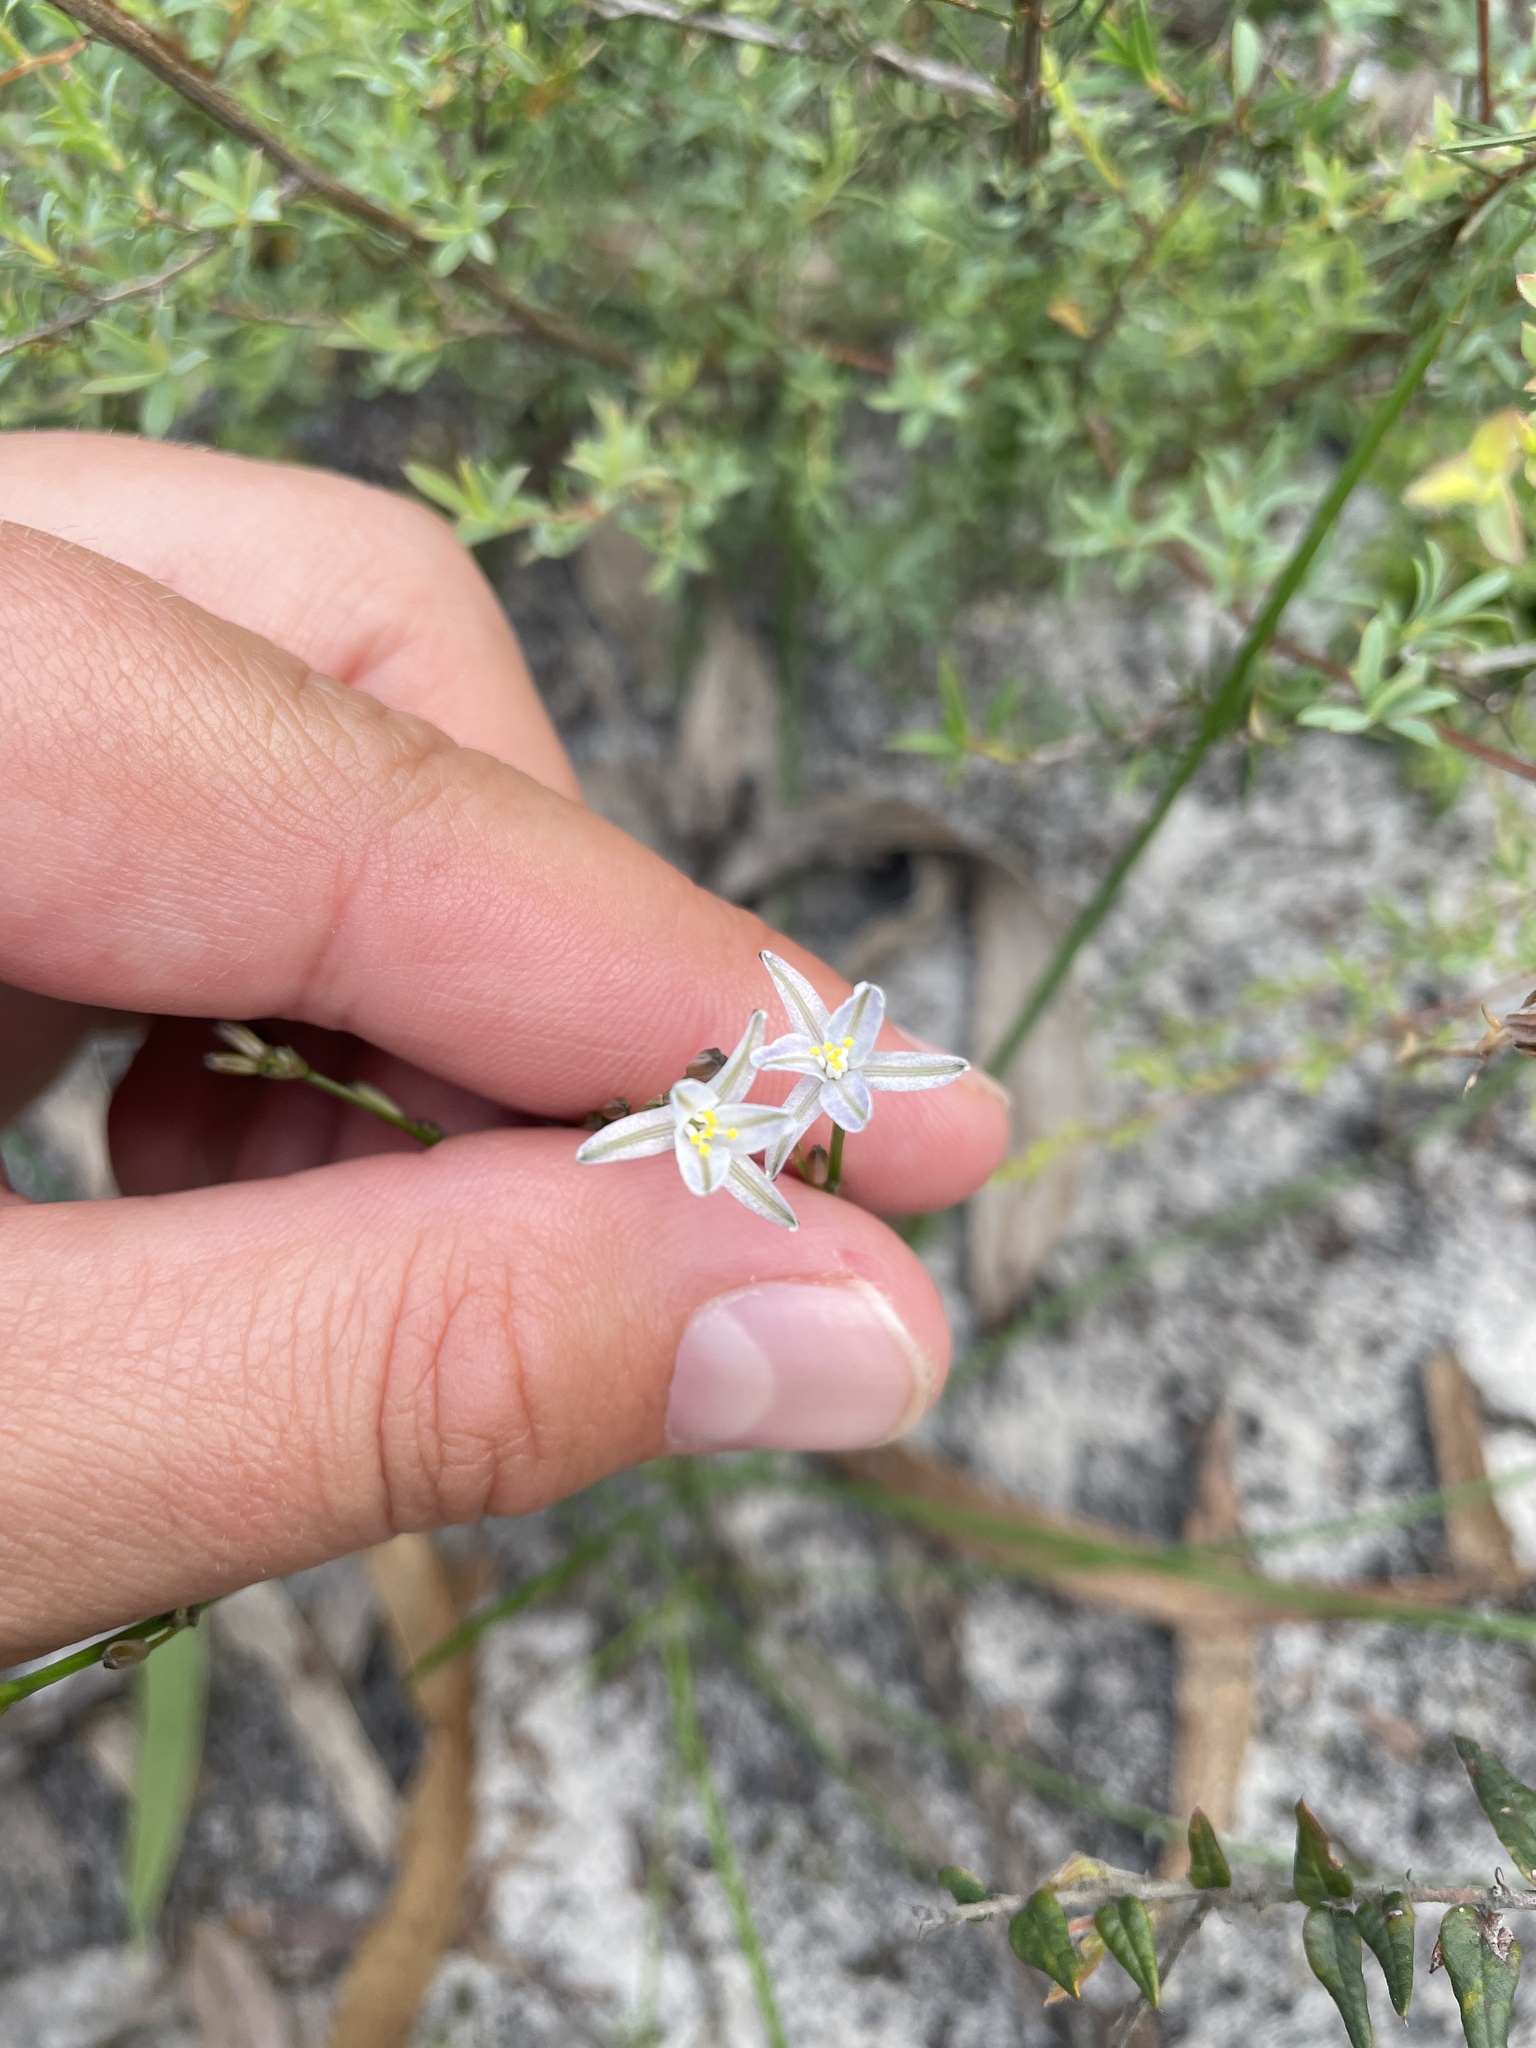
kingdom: Plantae
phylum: Tracheophyta
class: Liliopsida
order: Asparagales
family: Asphodelaceae
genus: Caesia
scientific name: Caesia parviflora
